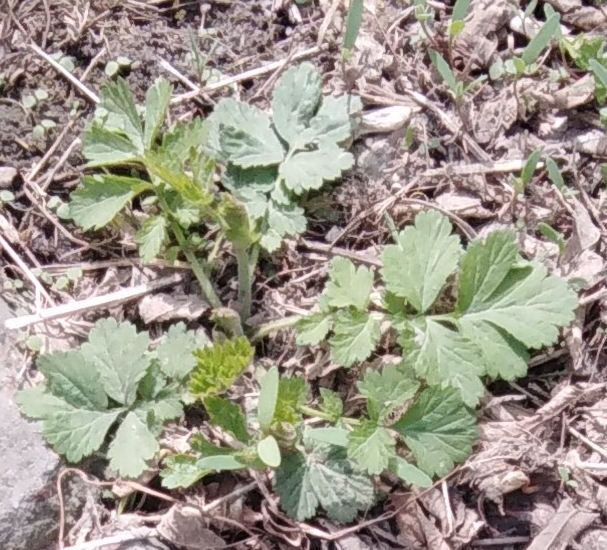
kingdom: Plantae
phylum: Tracheophyta
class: Magnoliopsida
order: Ranunculales
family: Papaveraceae
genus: Chelidonium
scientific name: Chelidonium majus
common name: Greater celandine
